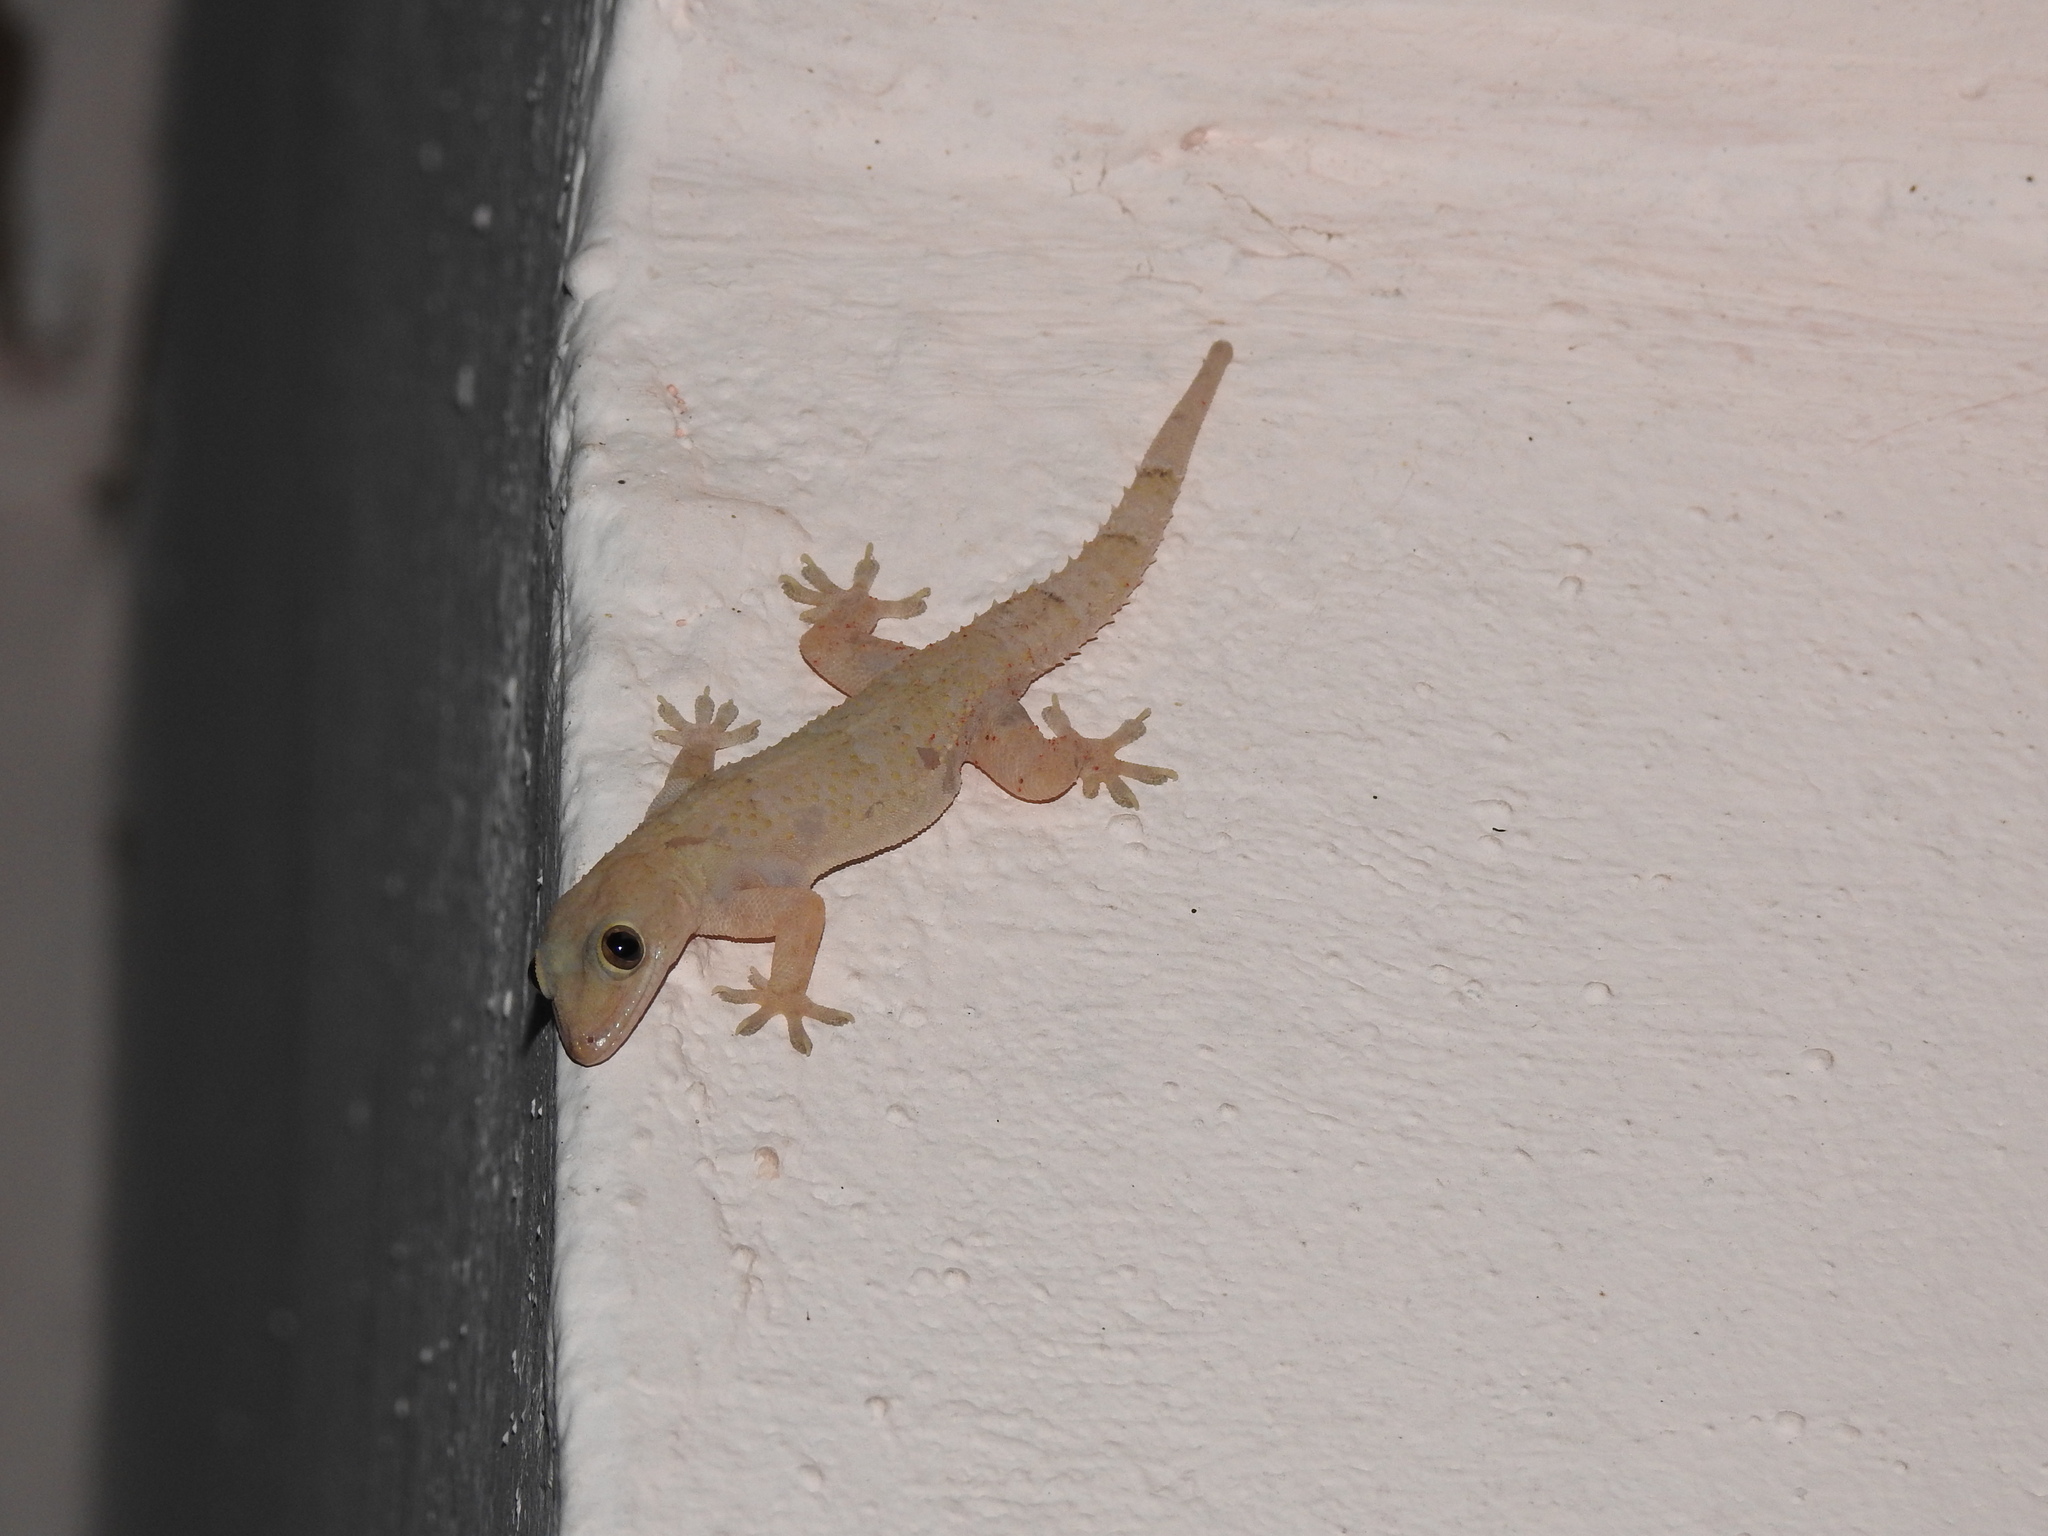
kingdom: Animalia
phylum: Chordata
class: Squamata
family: Gekkonidae
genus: Hemidactylus
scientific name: Hemidactylus mabouia
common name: House gecko
